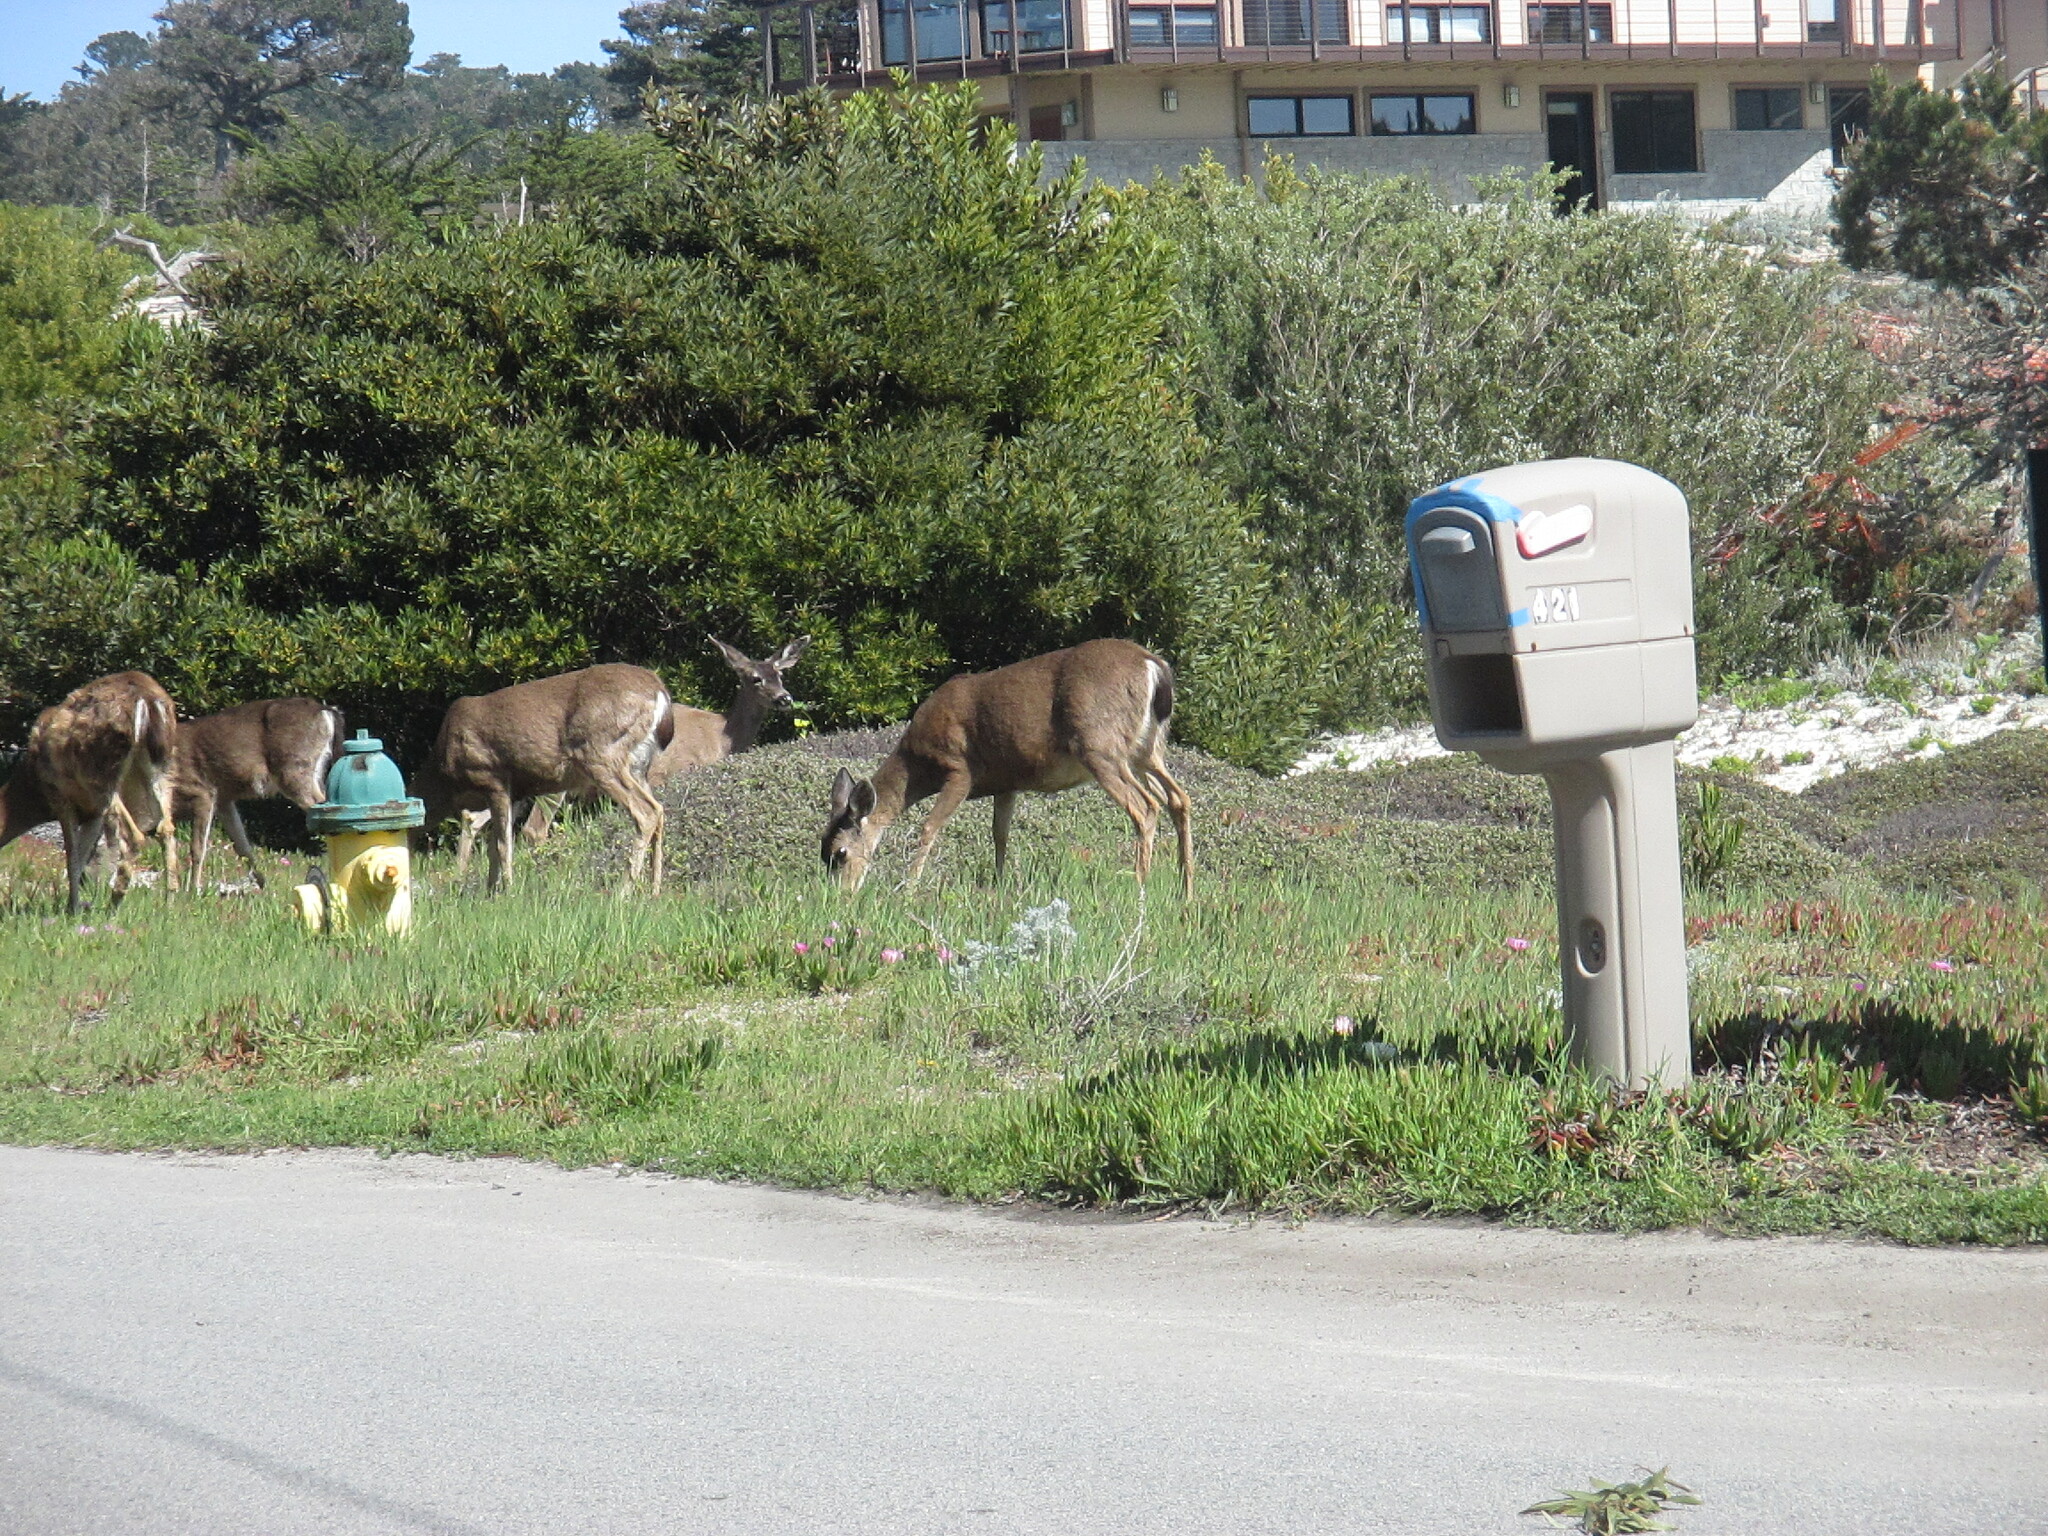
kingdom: Animalia
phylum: Chordata
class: Mammalia
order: Artiodactyla
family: Cervidae
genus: Odocoileus
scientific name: Odocoileus hemionus
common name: Mule deer
